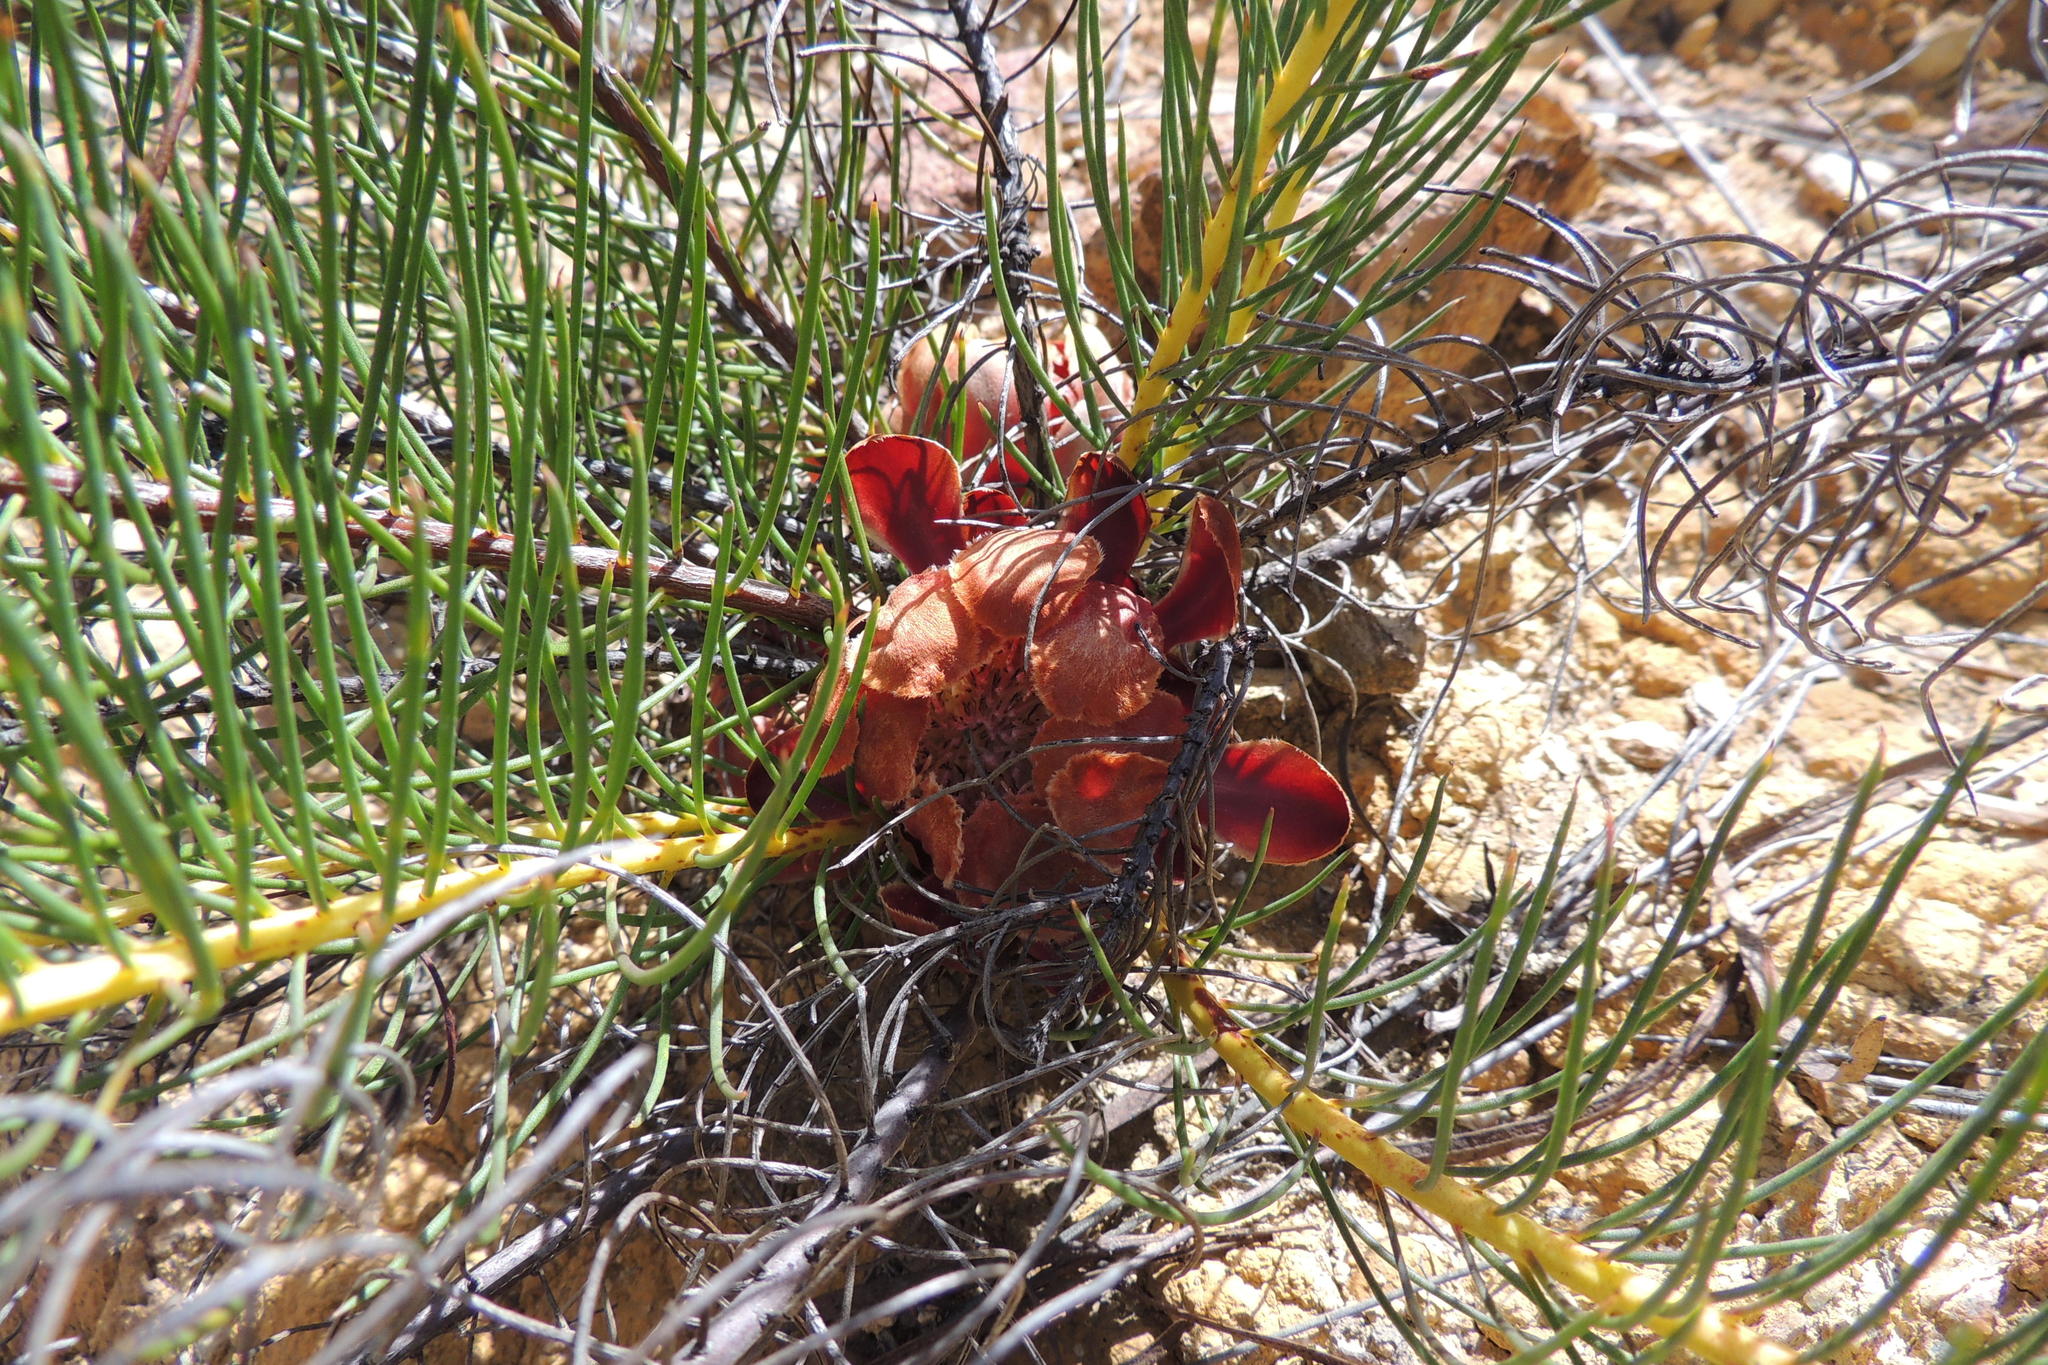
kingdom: Plantae
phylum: Tracheophyta
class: Magnoliopsida
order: Proteales
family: Proteaceae
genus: Protea
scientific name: Protea subulifolia
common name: Awl-leaf sugarbush
